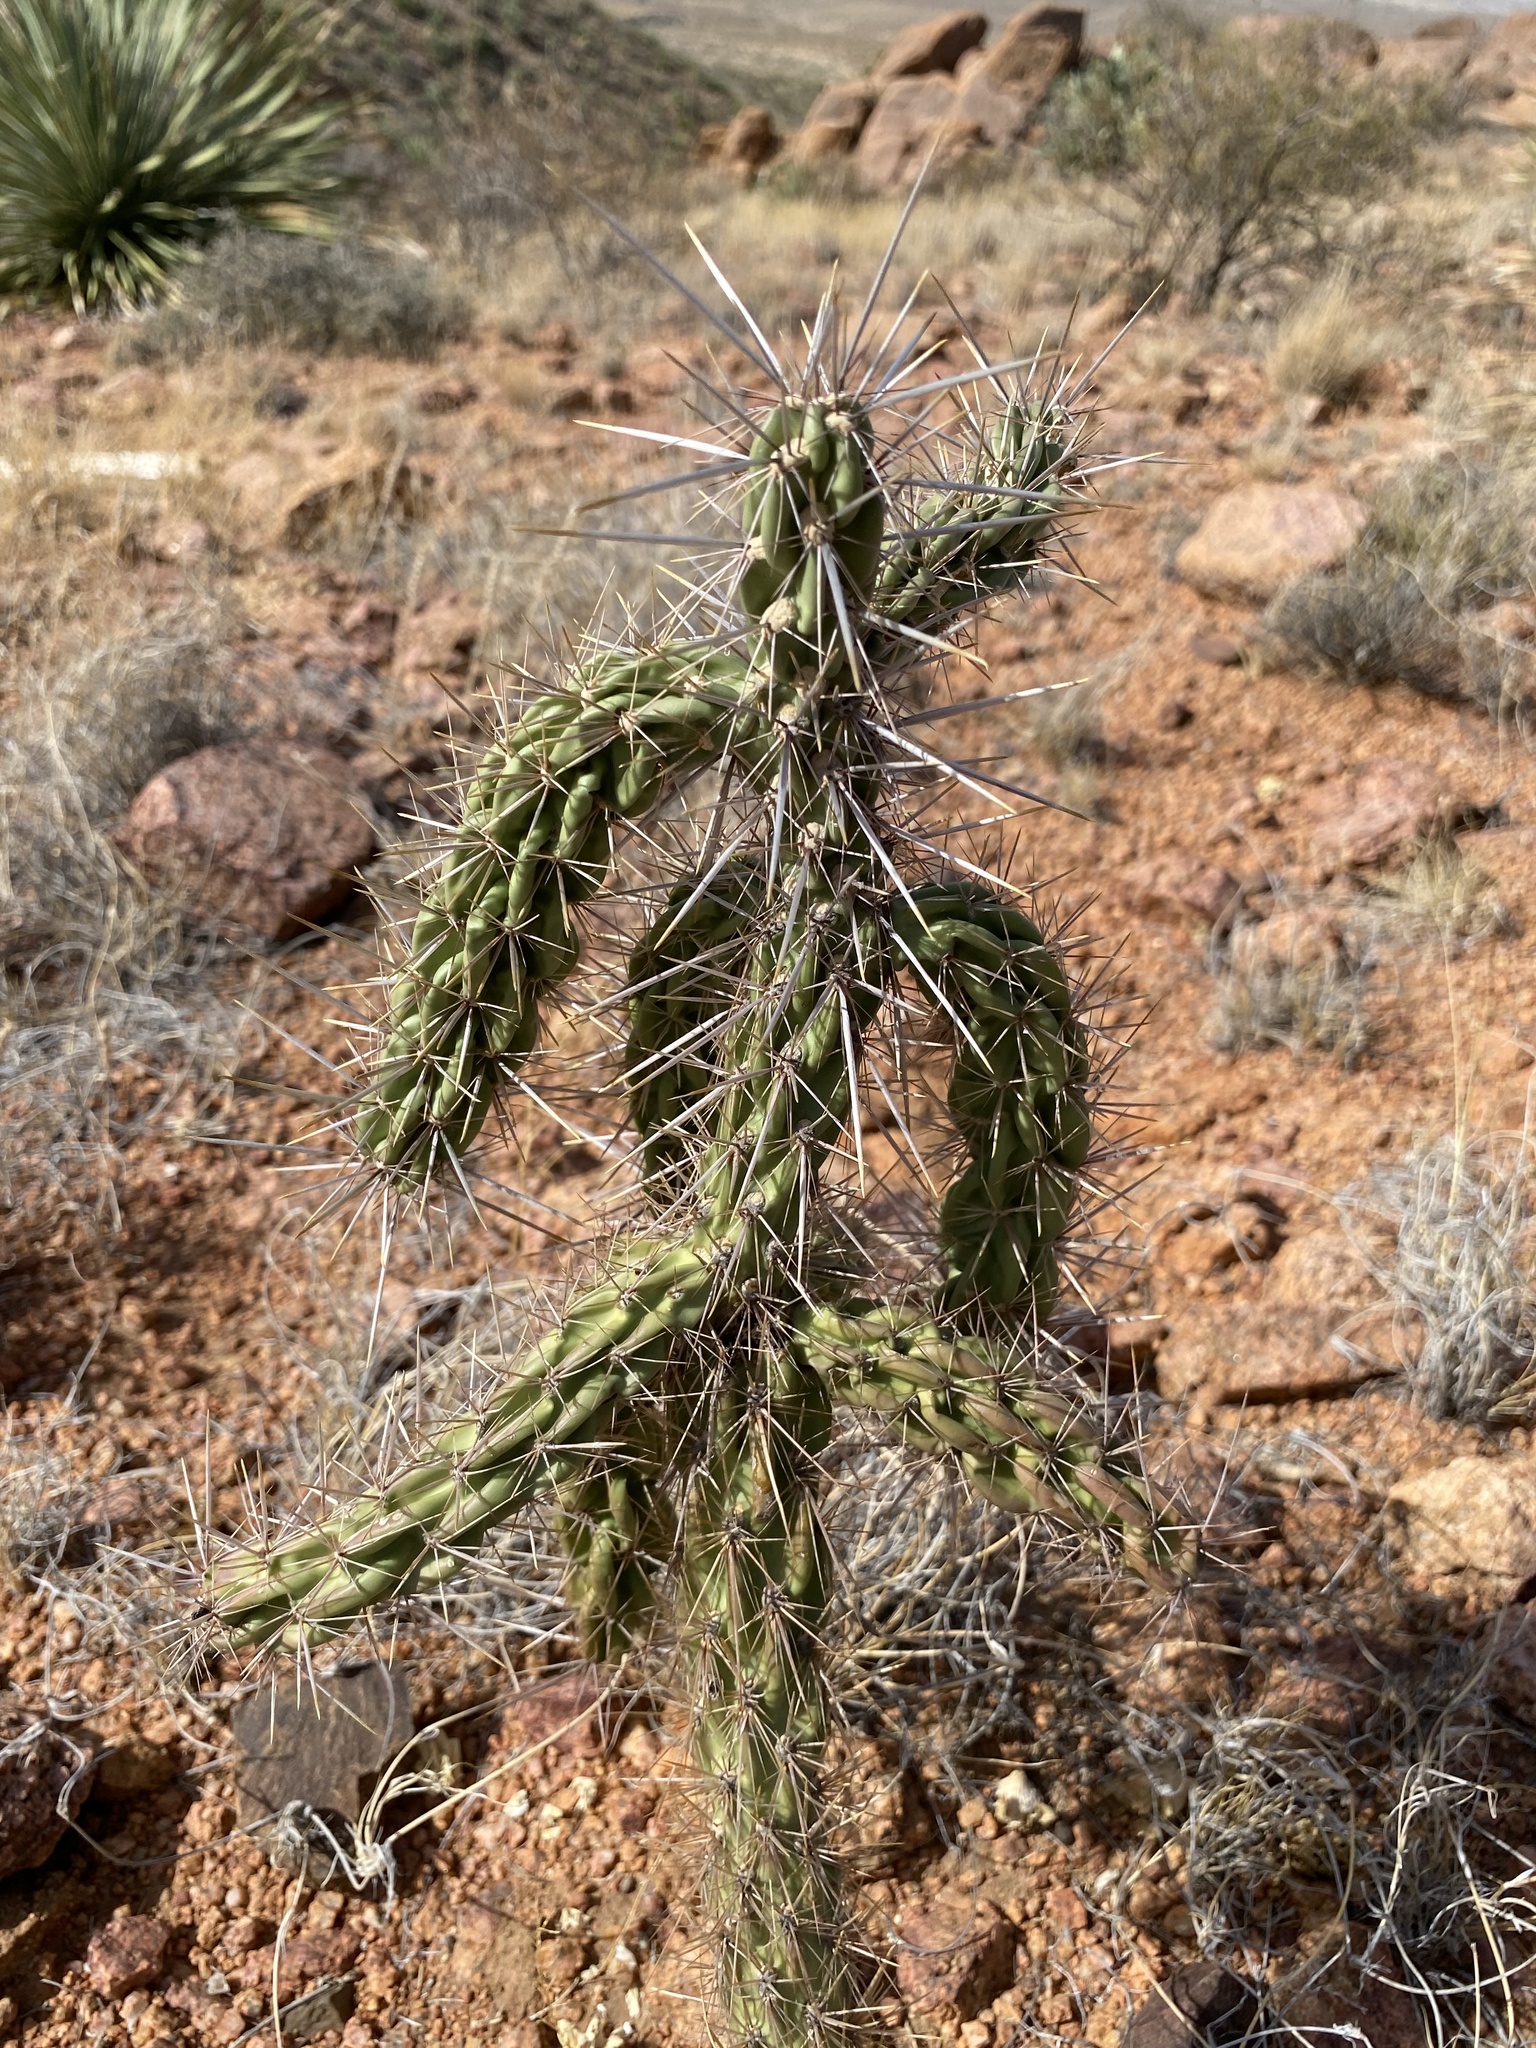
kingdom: Plantae
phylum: Tracheophyta
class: Magnoliopsida
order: Caryophyllales
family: Cactaceae
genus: Cylindropuntia
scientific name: Cylindropuntia imbricata
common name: Candelabrum cactus
